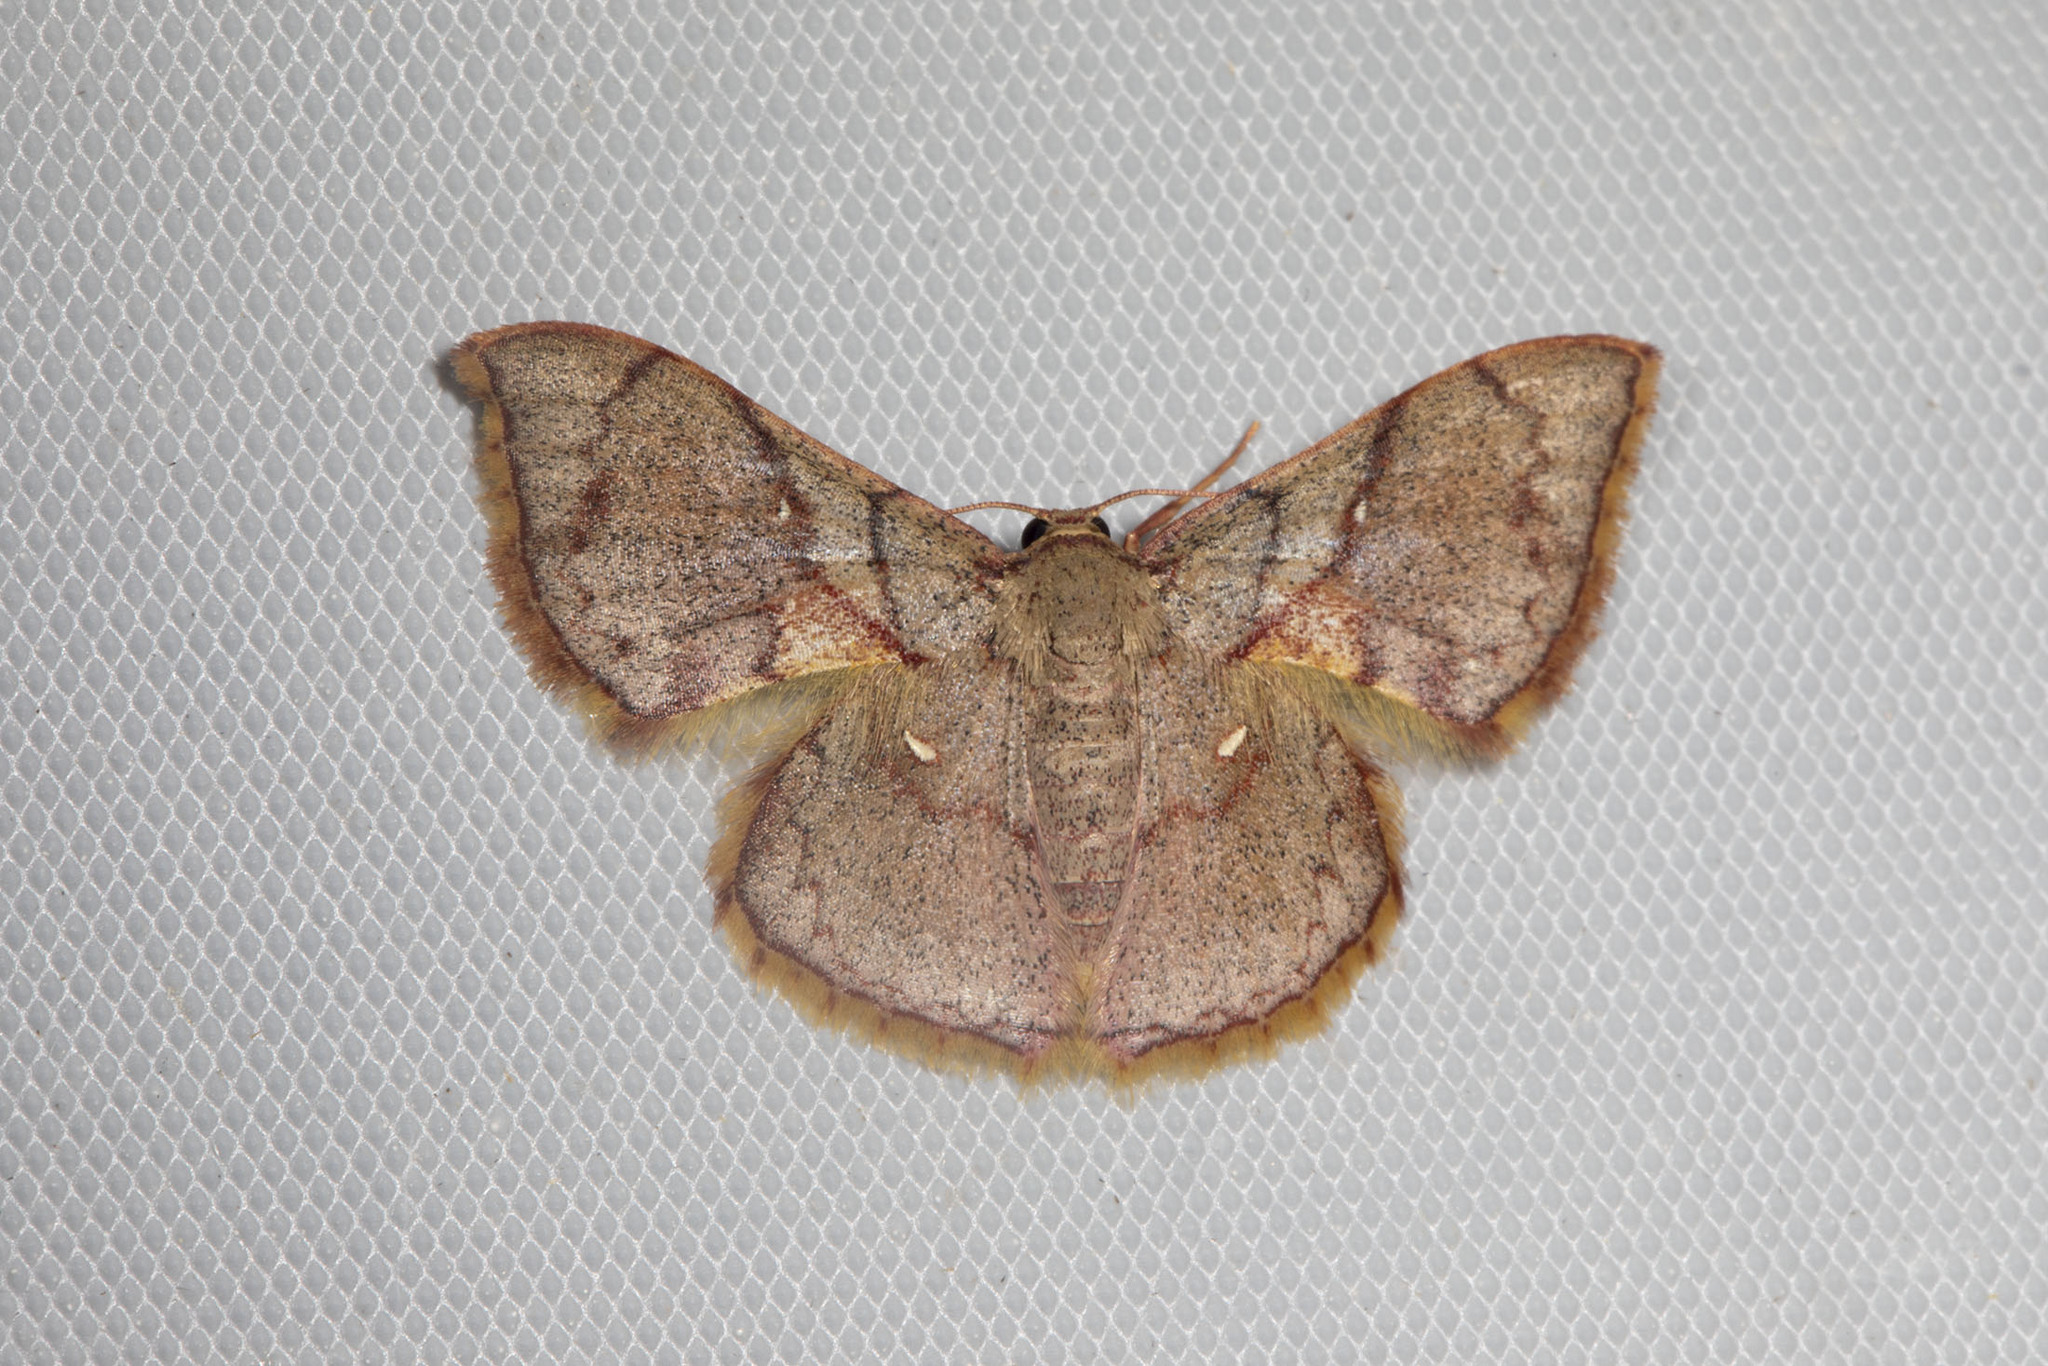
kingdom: Animalia
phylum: Arthropoda
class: Insecta
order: Lepidoptera
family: Geometridae
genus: Hemipterodes
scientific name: Hemipterodes subnigrata
